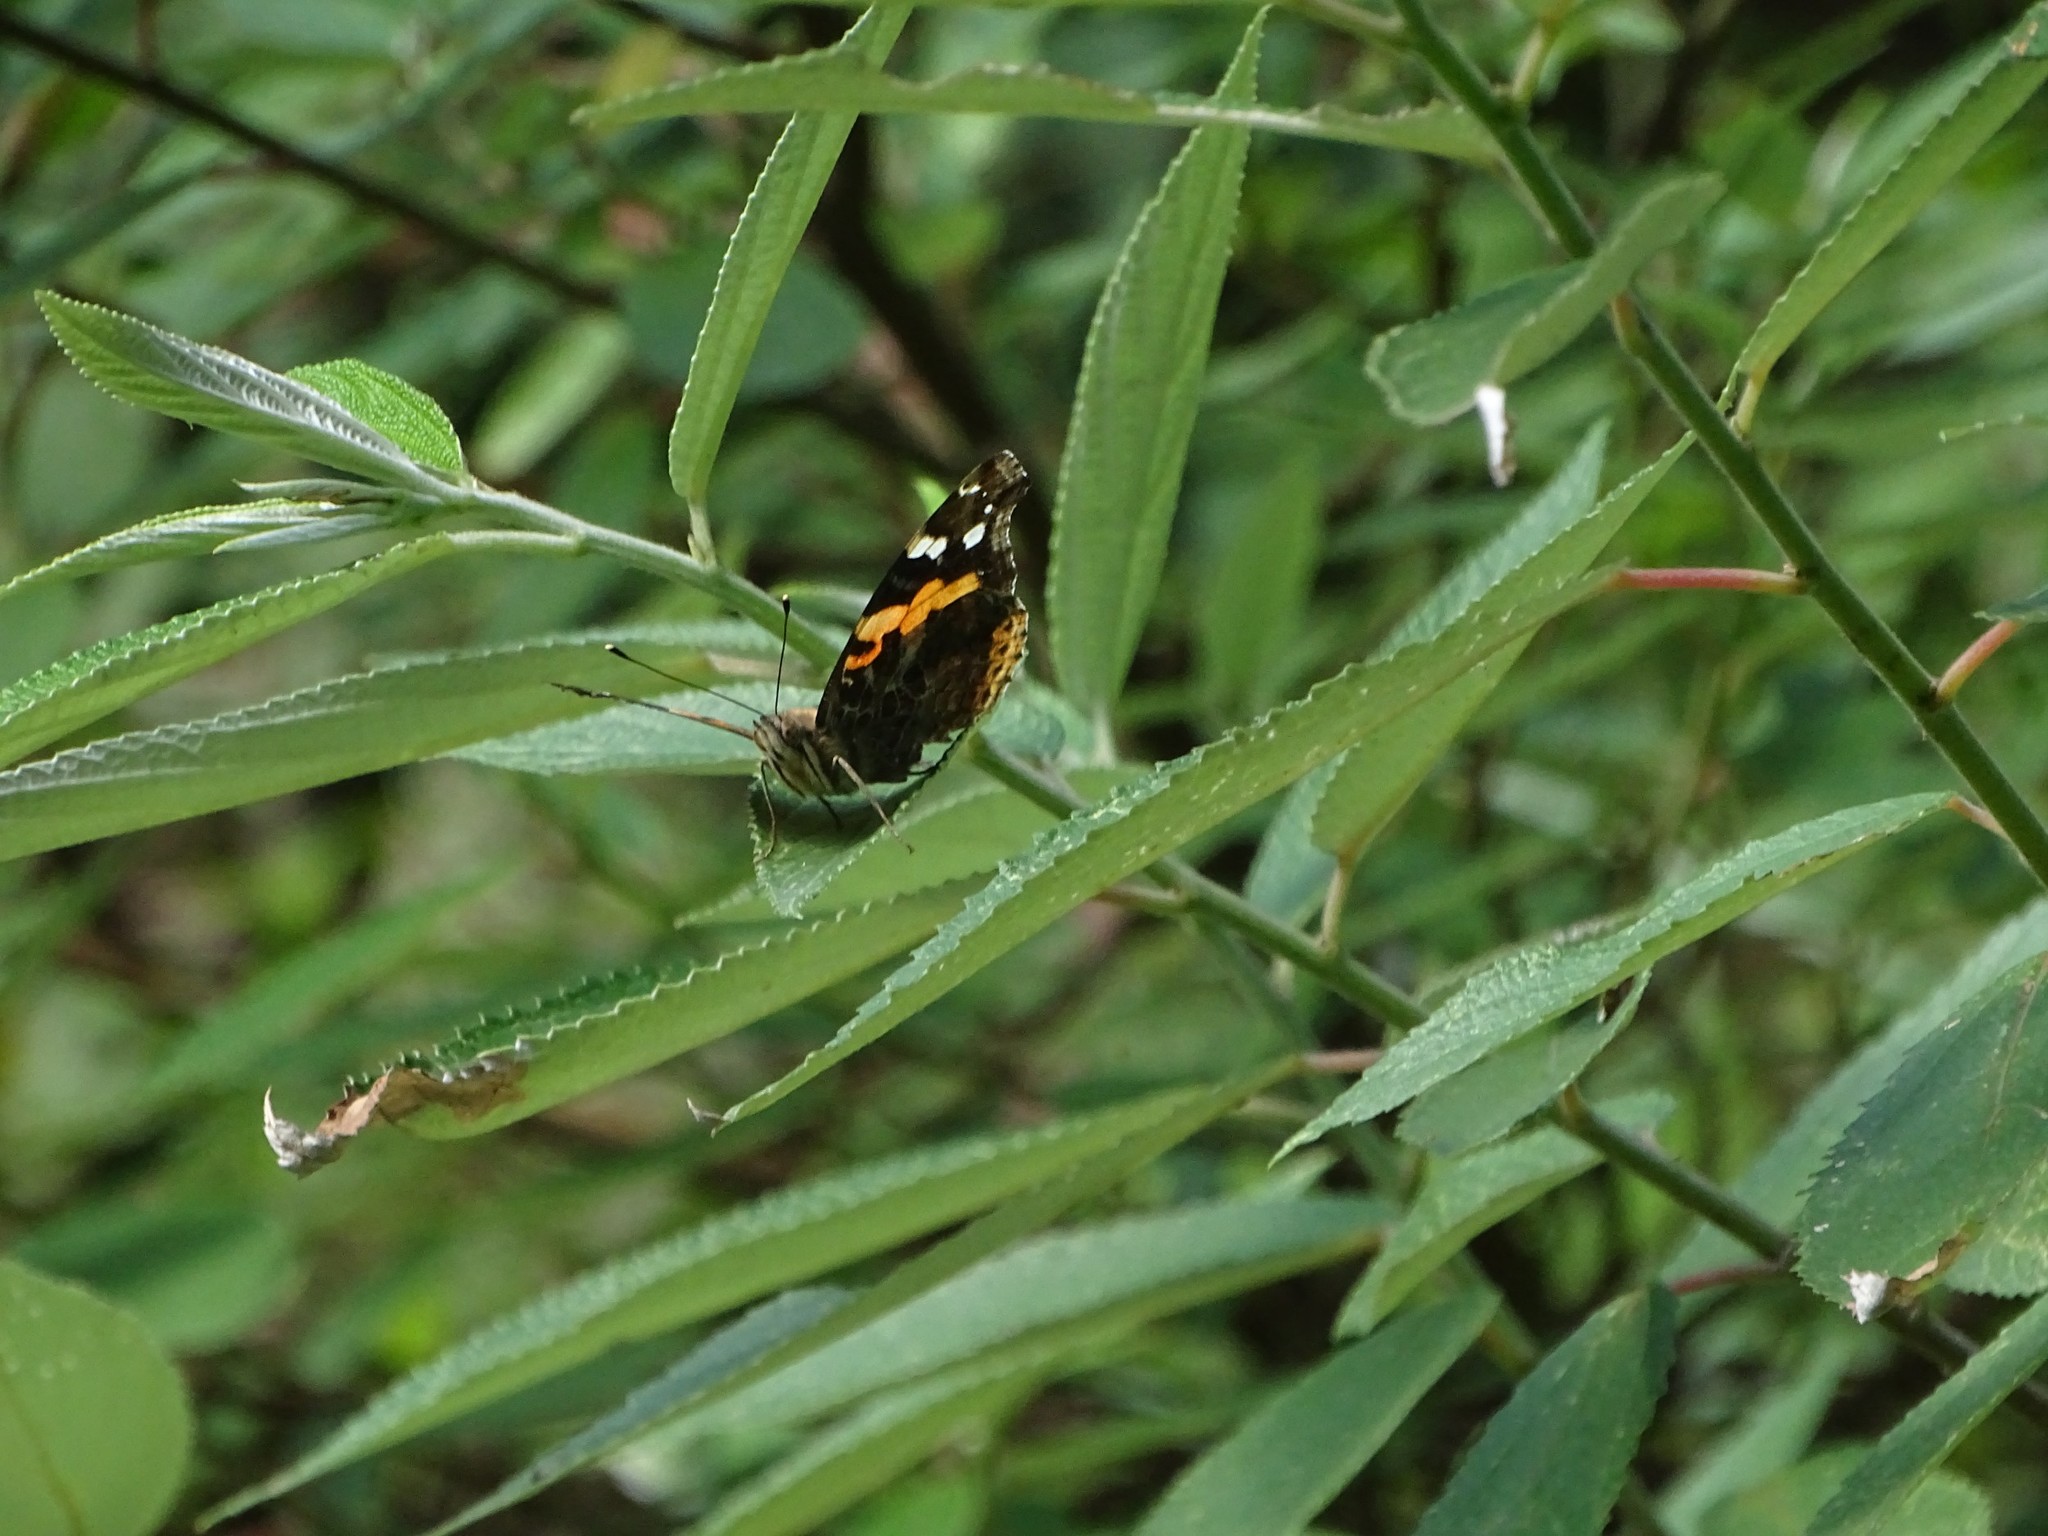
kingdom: Animalia
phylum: Arthropoda
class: Insecta
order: Lepidoptera
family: Nymphalidae
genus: Vanessa
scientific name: Vanessa indica
